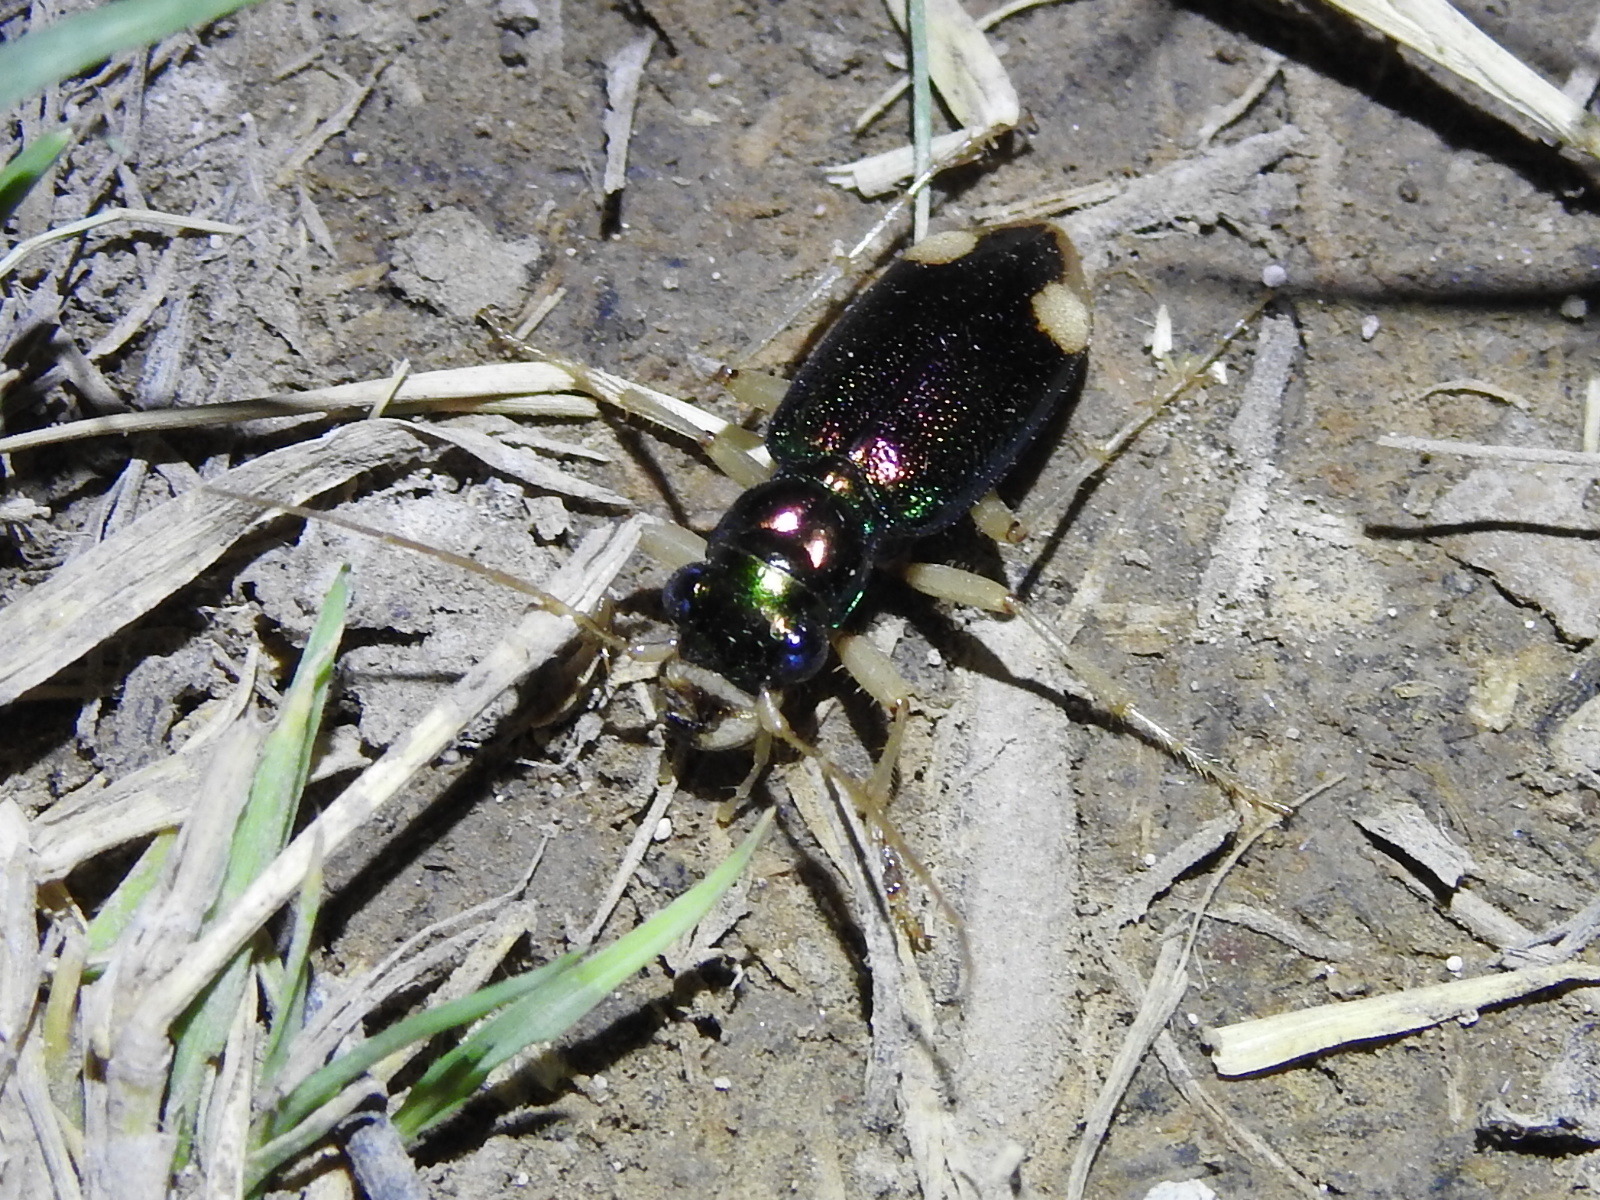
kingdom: Animalia
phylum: Arthropoda
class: Insecta
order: Coleoptera
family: Carabidae
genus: Tetracha
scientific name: Tetracha carolina
